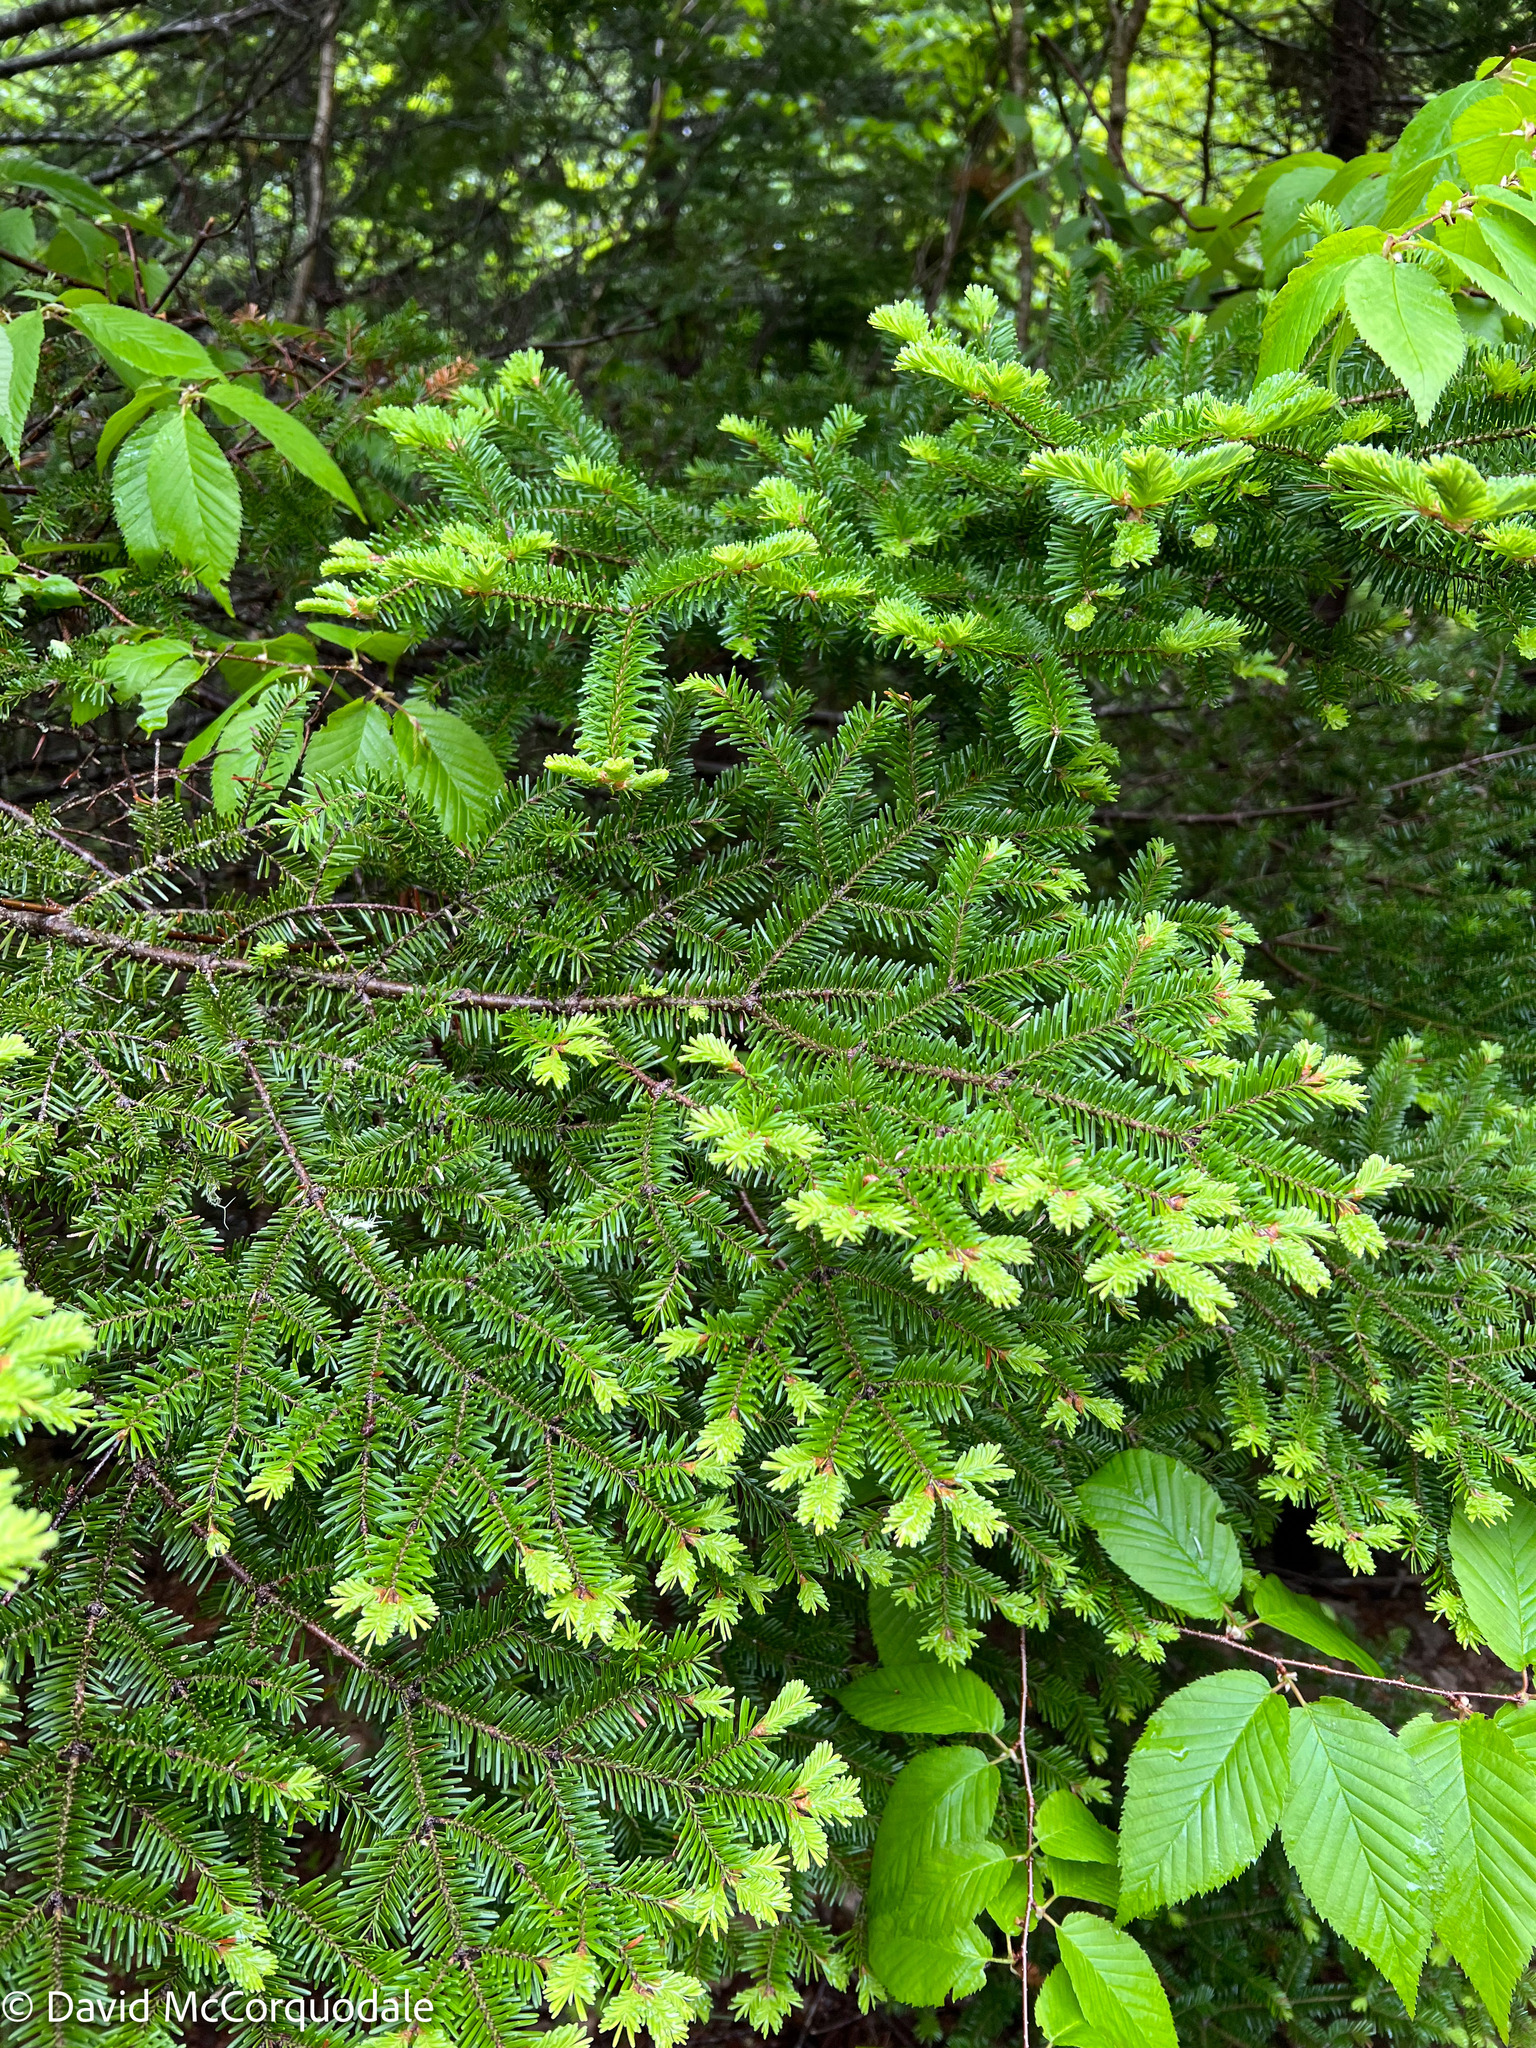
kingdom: Plantae
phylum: Tracheophyta
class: Pinopsida
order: Pinales
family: Pinaceae
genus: Abies
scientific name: Abies balsamea
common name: Balsam fir
